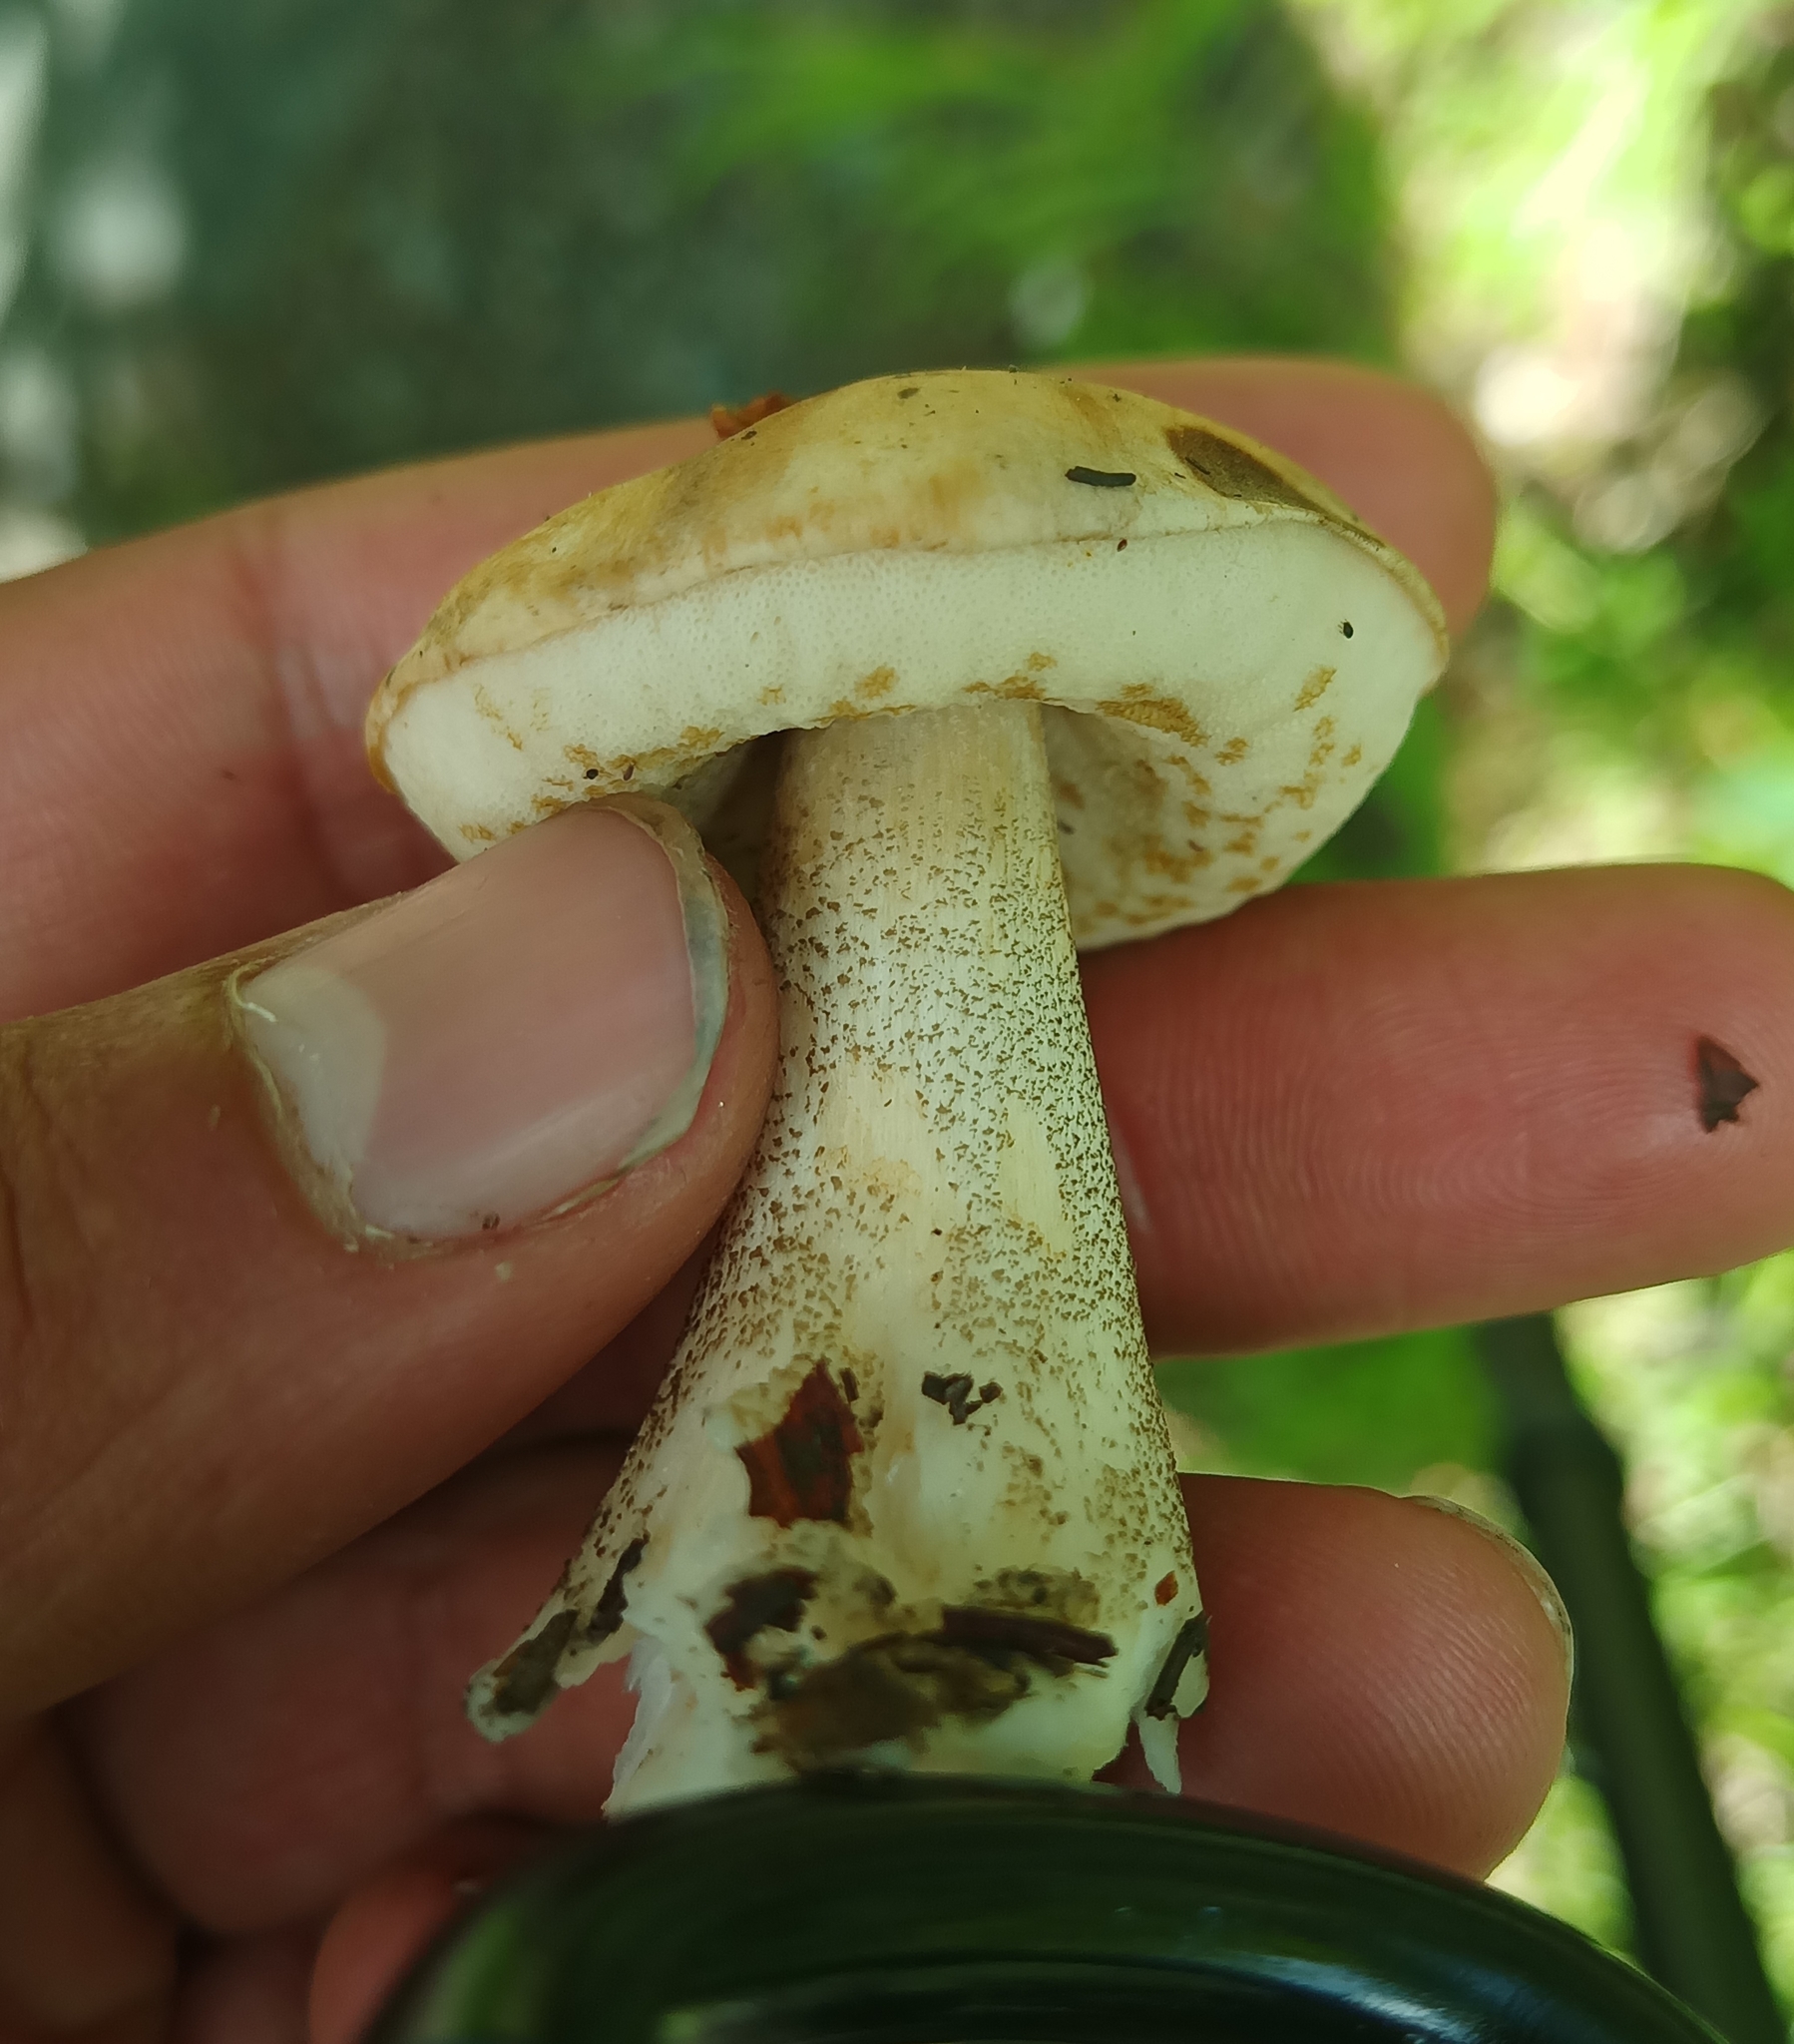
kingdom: Fungi
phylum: Basidiomycota
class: Agaricomycetes
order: Boletales
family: Boletaceae
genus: Leccinum
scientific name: Leccinum scabrum
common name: Blushing bolete
